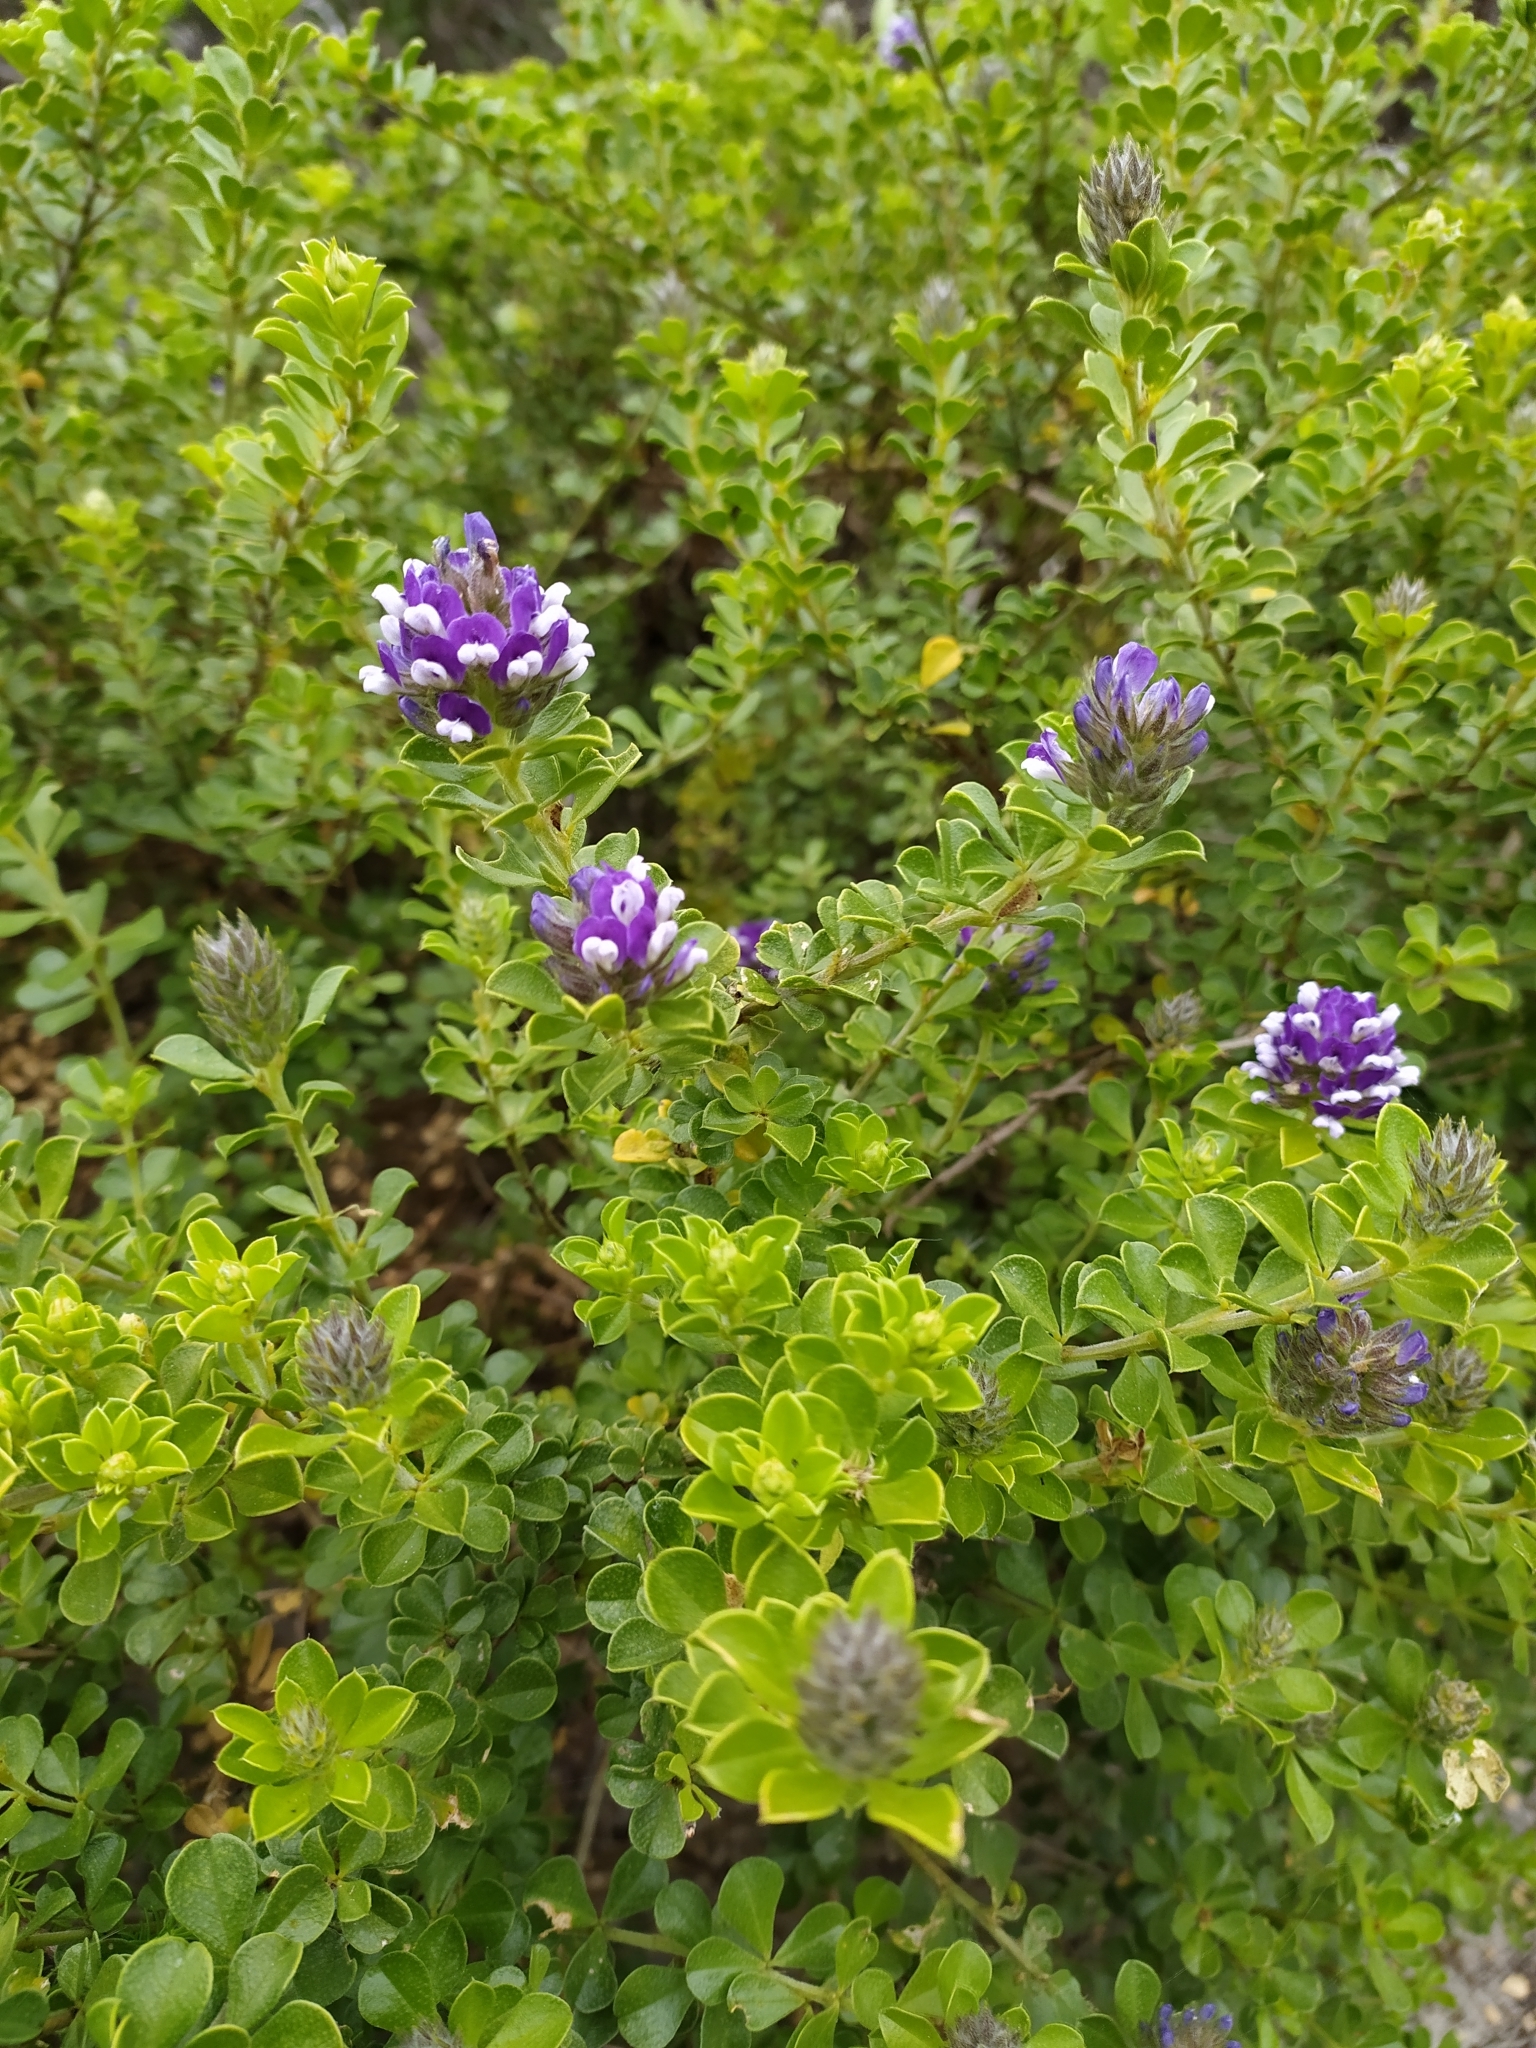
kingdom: Plantae
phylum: Tracheophyta
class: Magnoliopsida
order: Fabales
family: Fabaceae
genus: Psoralea
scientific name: Psoralea bracteolata
